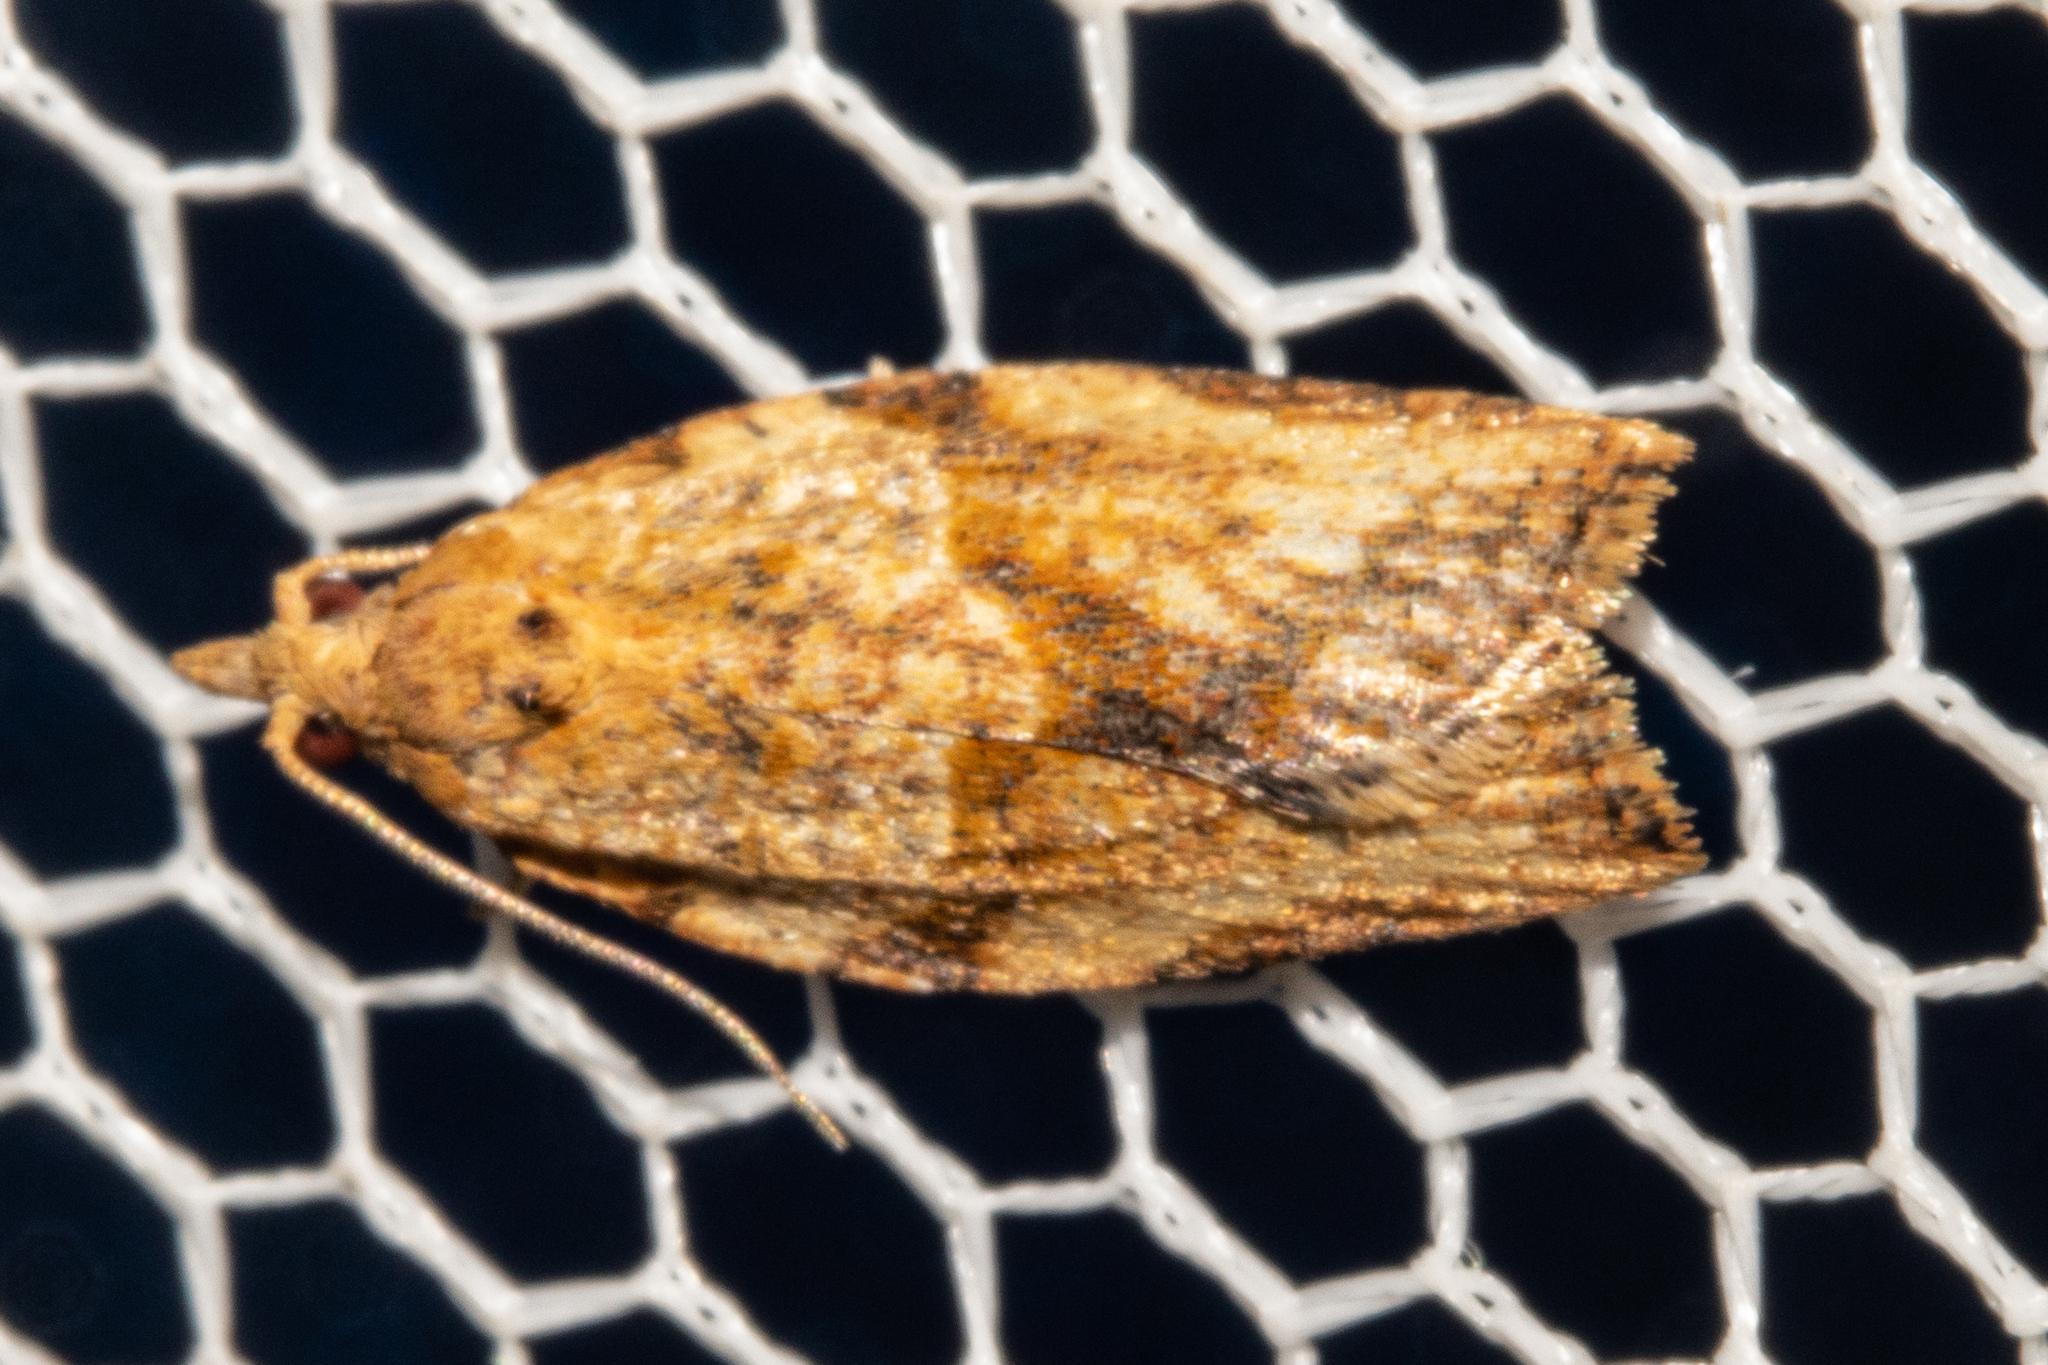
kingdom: Animalia
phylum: Arthropoda
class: Insecta
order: Lepidoptera
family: Tortricidae
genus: Epiphyas
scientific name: Epiphyas postvittana
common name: Light brown apple moth
